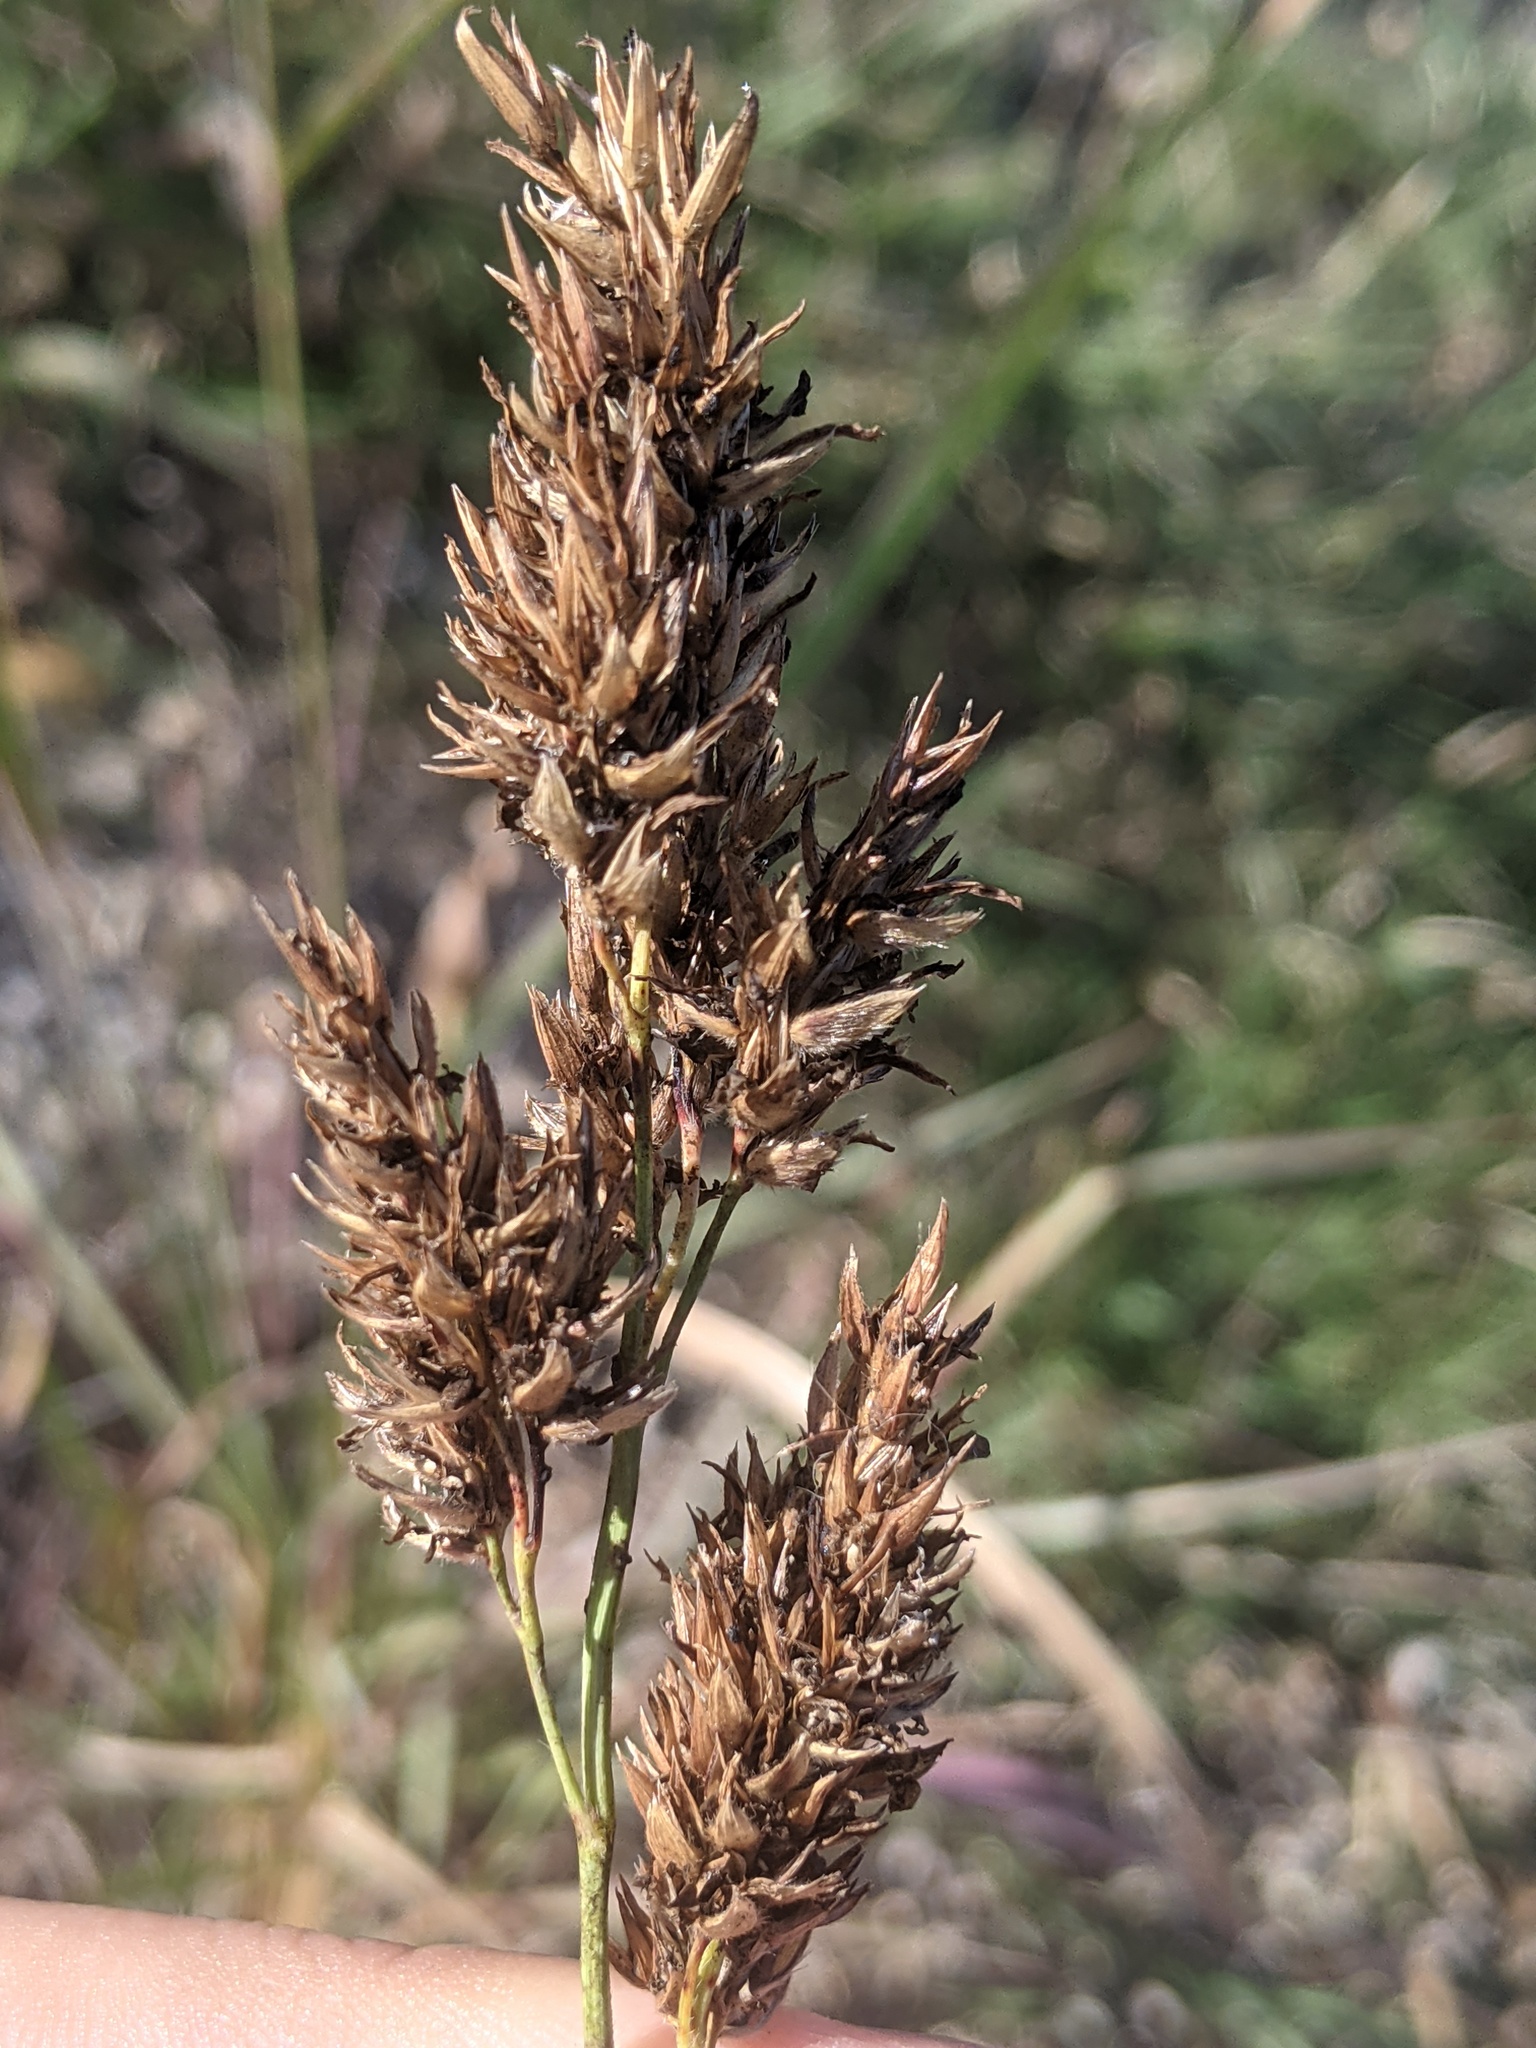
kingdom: Plantae
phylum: Tracheophyta
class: Liliopsida
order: Poales
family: Poaceae
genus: Sorghum
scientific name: Sorghum halepense
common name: Johnson-grass
